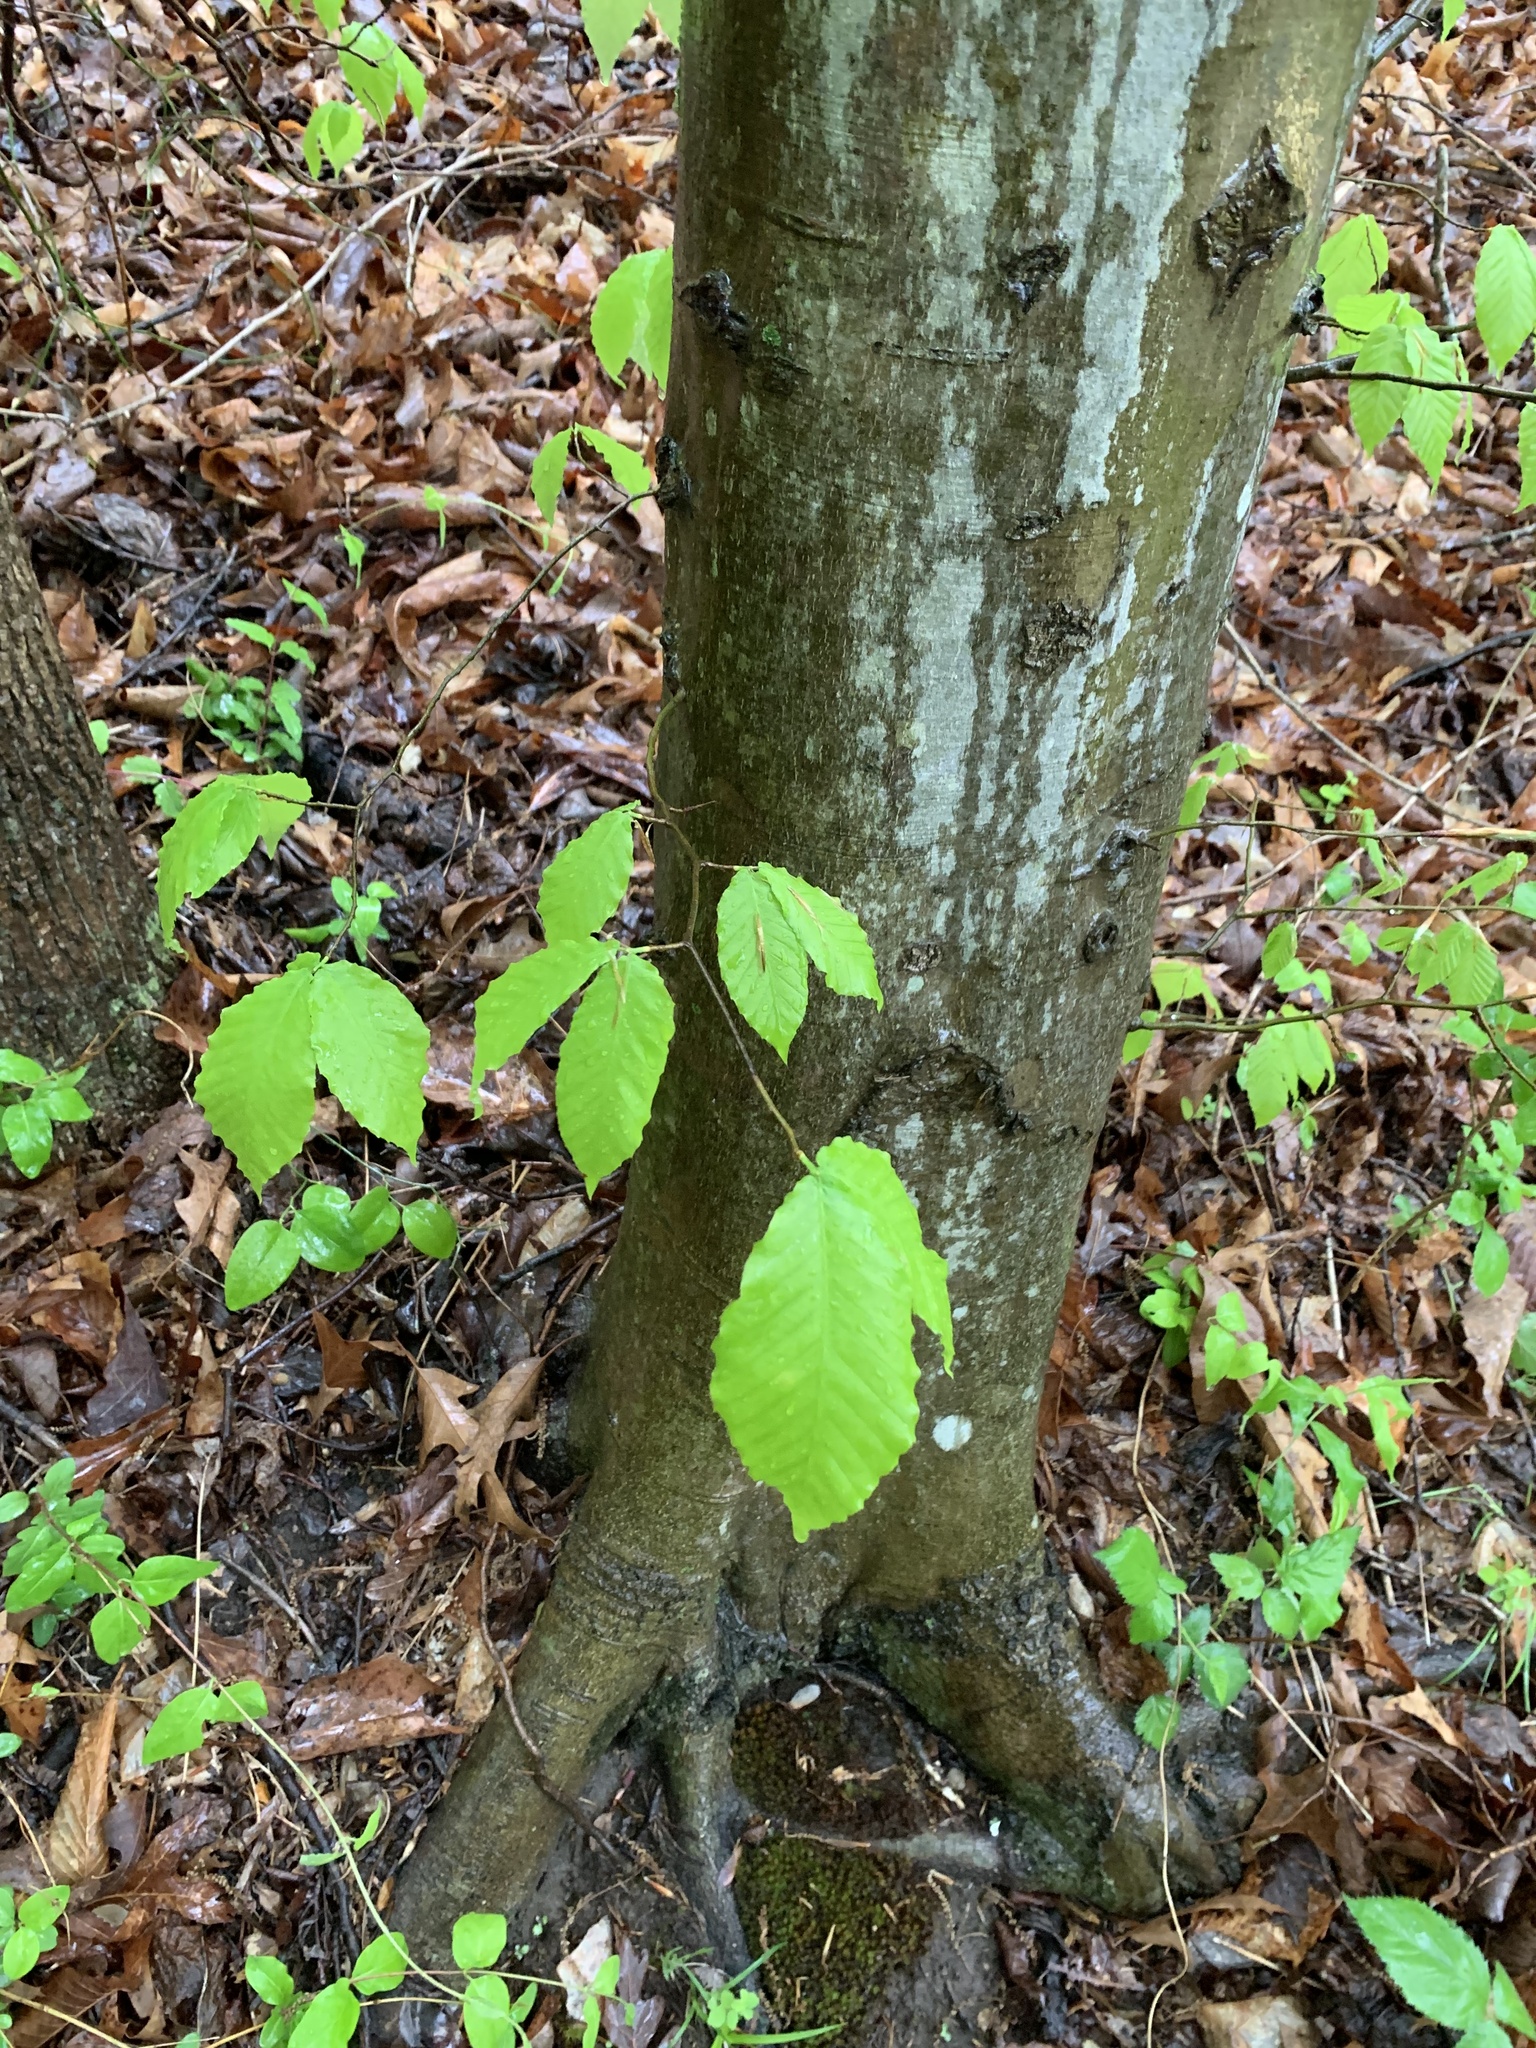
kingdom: Plantae
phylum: Tracheophyta
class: Magnoliopsida
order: Fagales
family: Fagaceae
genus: Fagus
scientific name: Fagus grandifolia
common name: American beech
